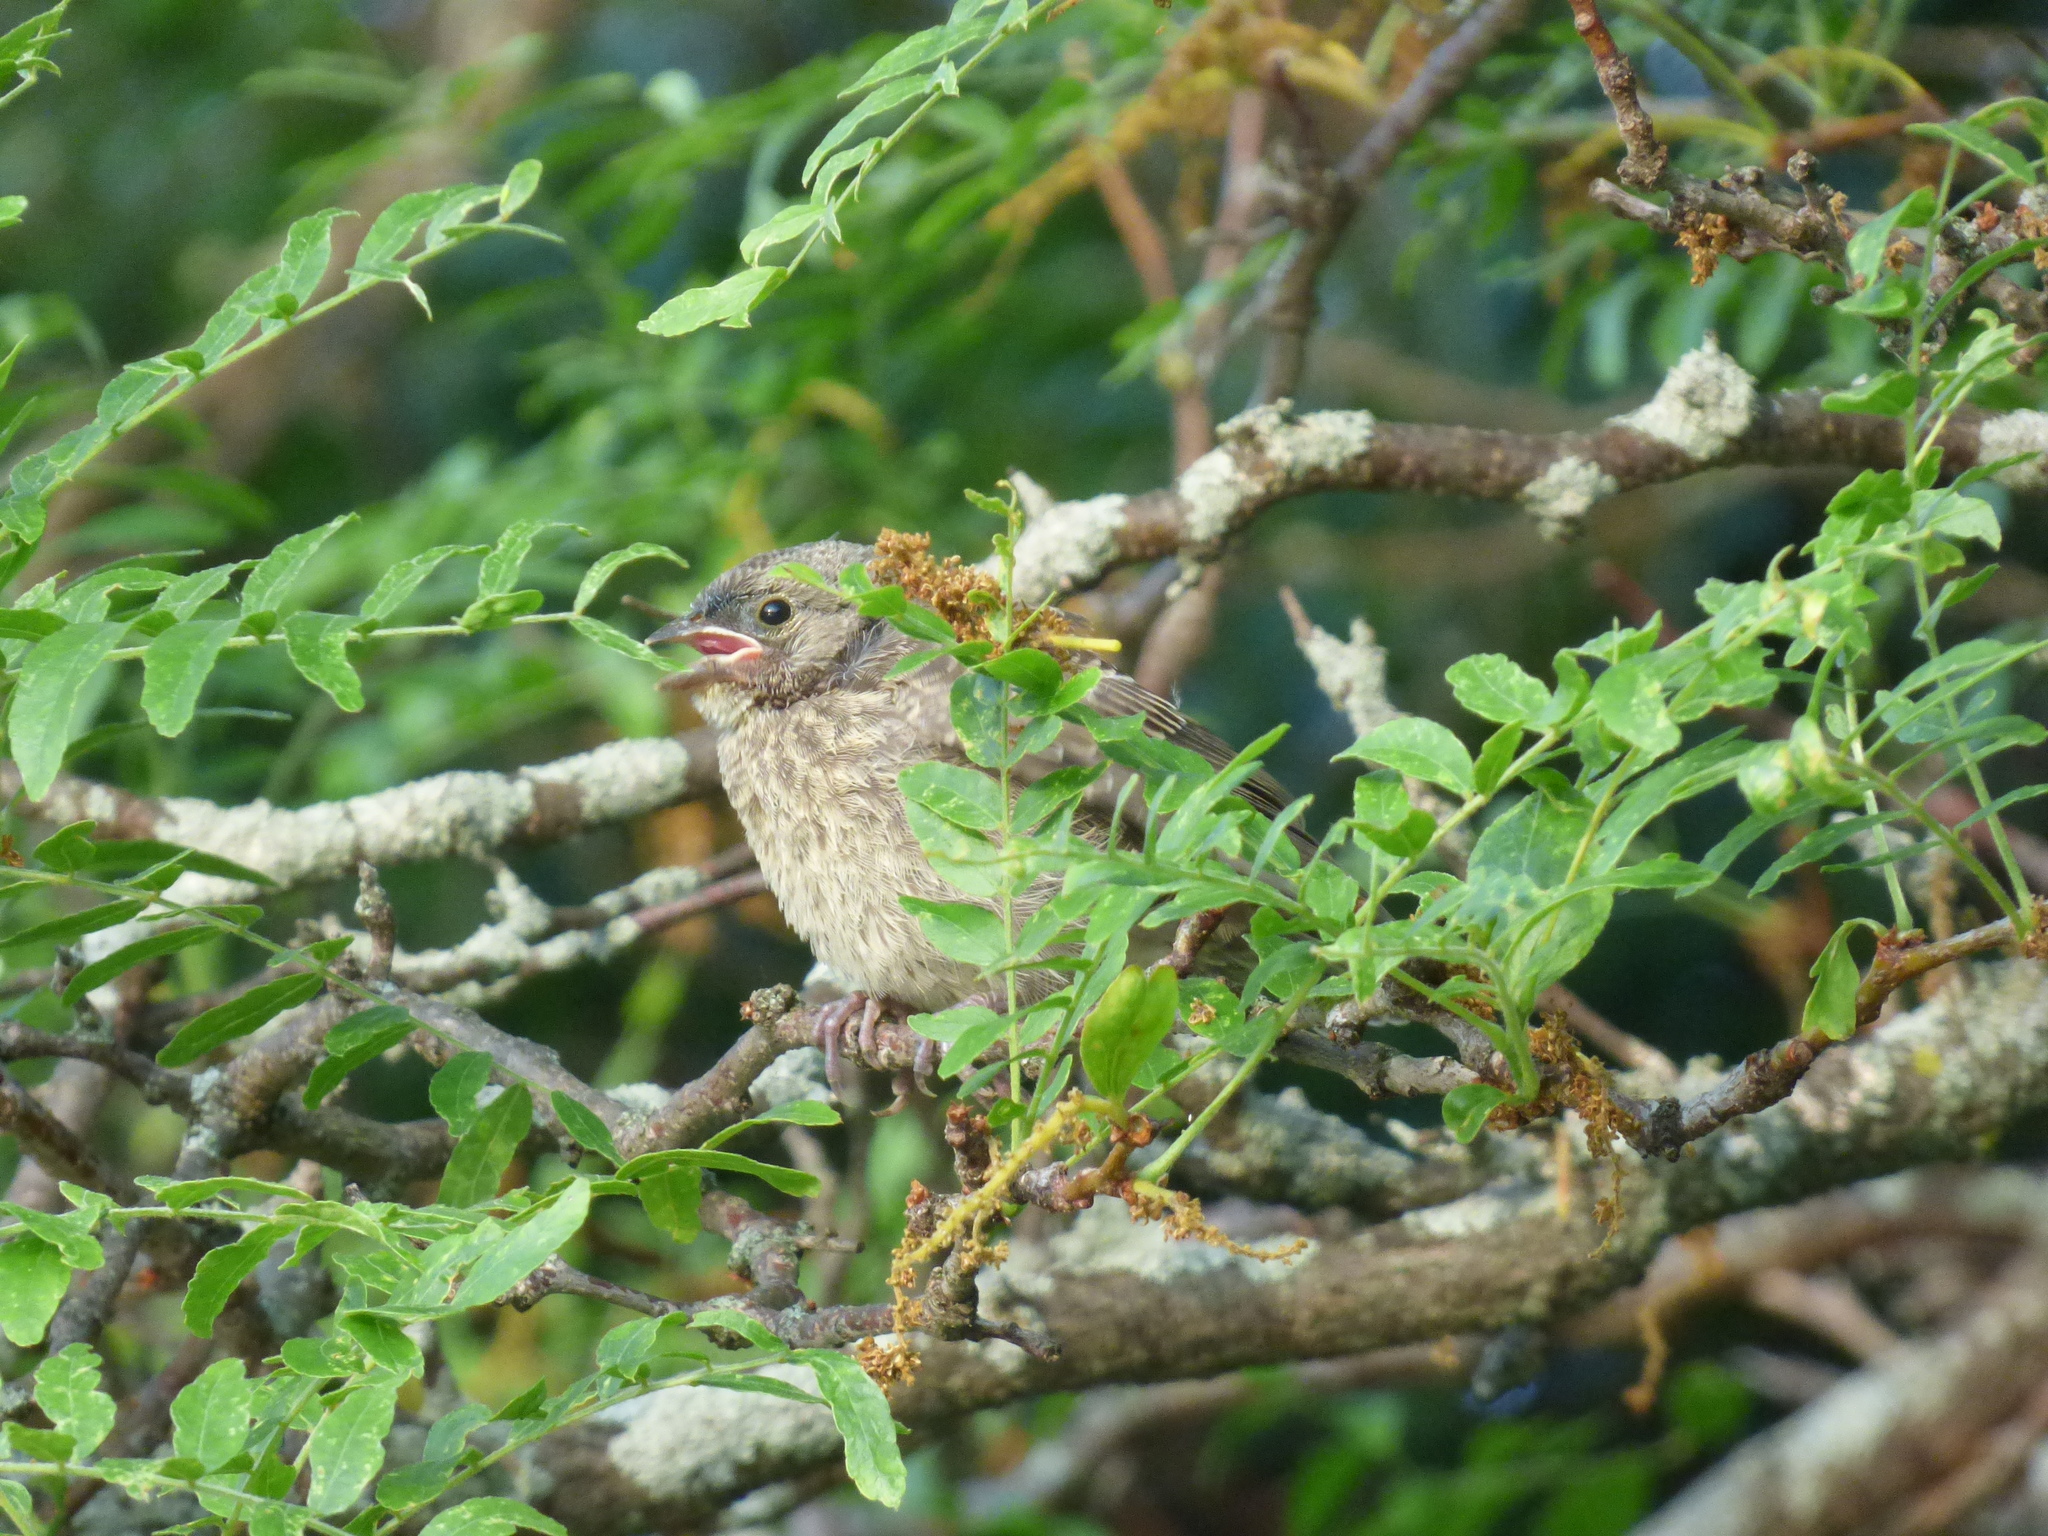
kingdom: Animalia
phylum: Chordata
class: Aves
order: Passeriformes
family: Icteridae
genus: Molothrus
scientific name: Molothrus ater
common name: Brown-headed cowbird
